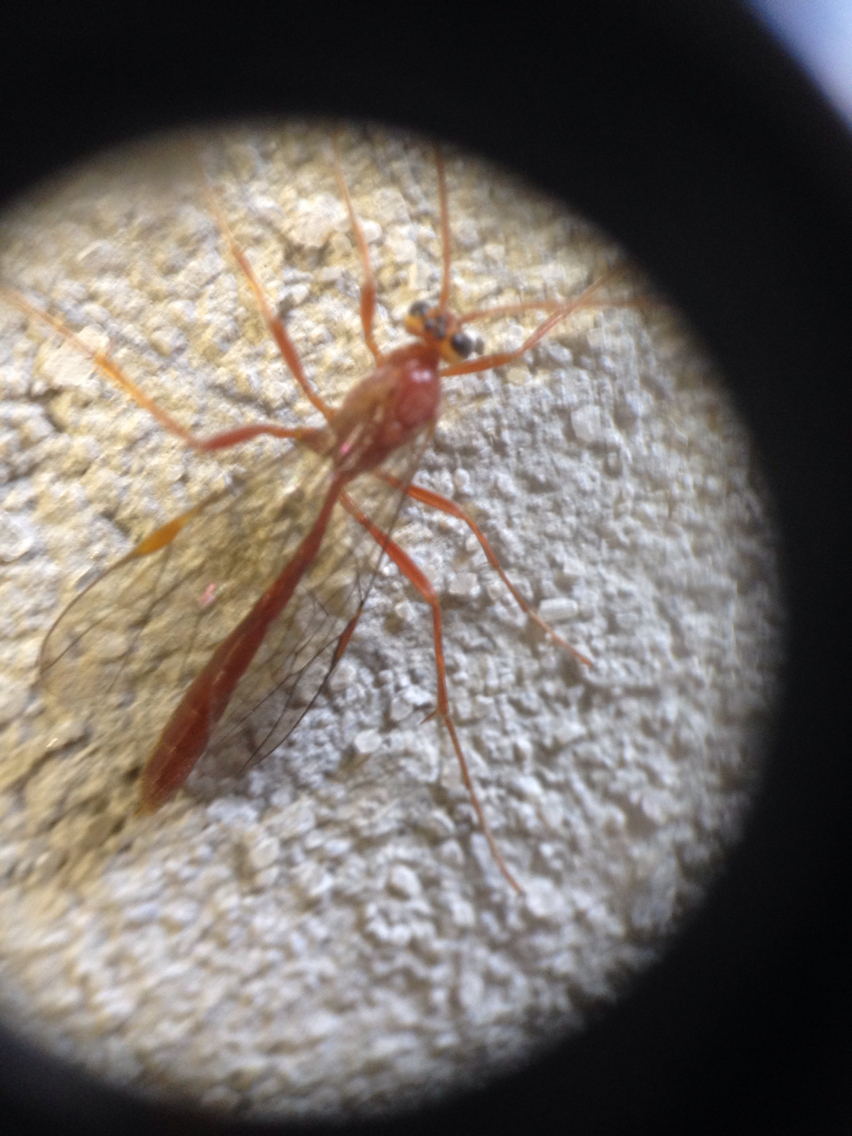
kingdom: Animalia
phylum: Arthropoda
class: Insecta
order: Hymenoptera
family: Ichneumonidae
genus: Ophion
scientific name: Ophion
